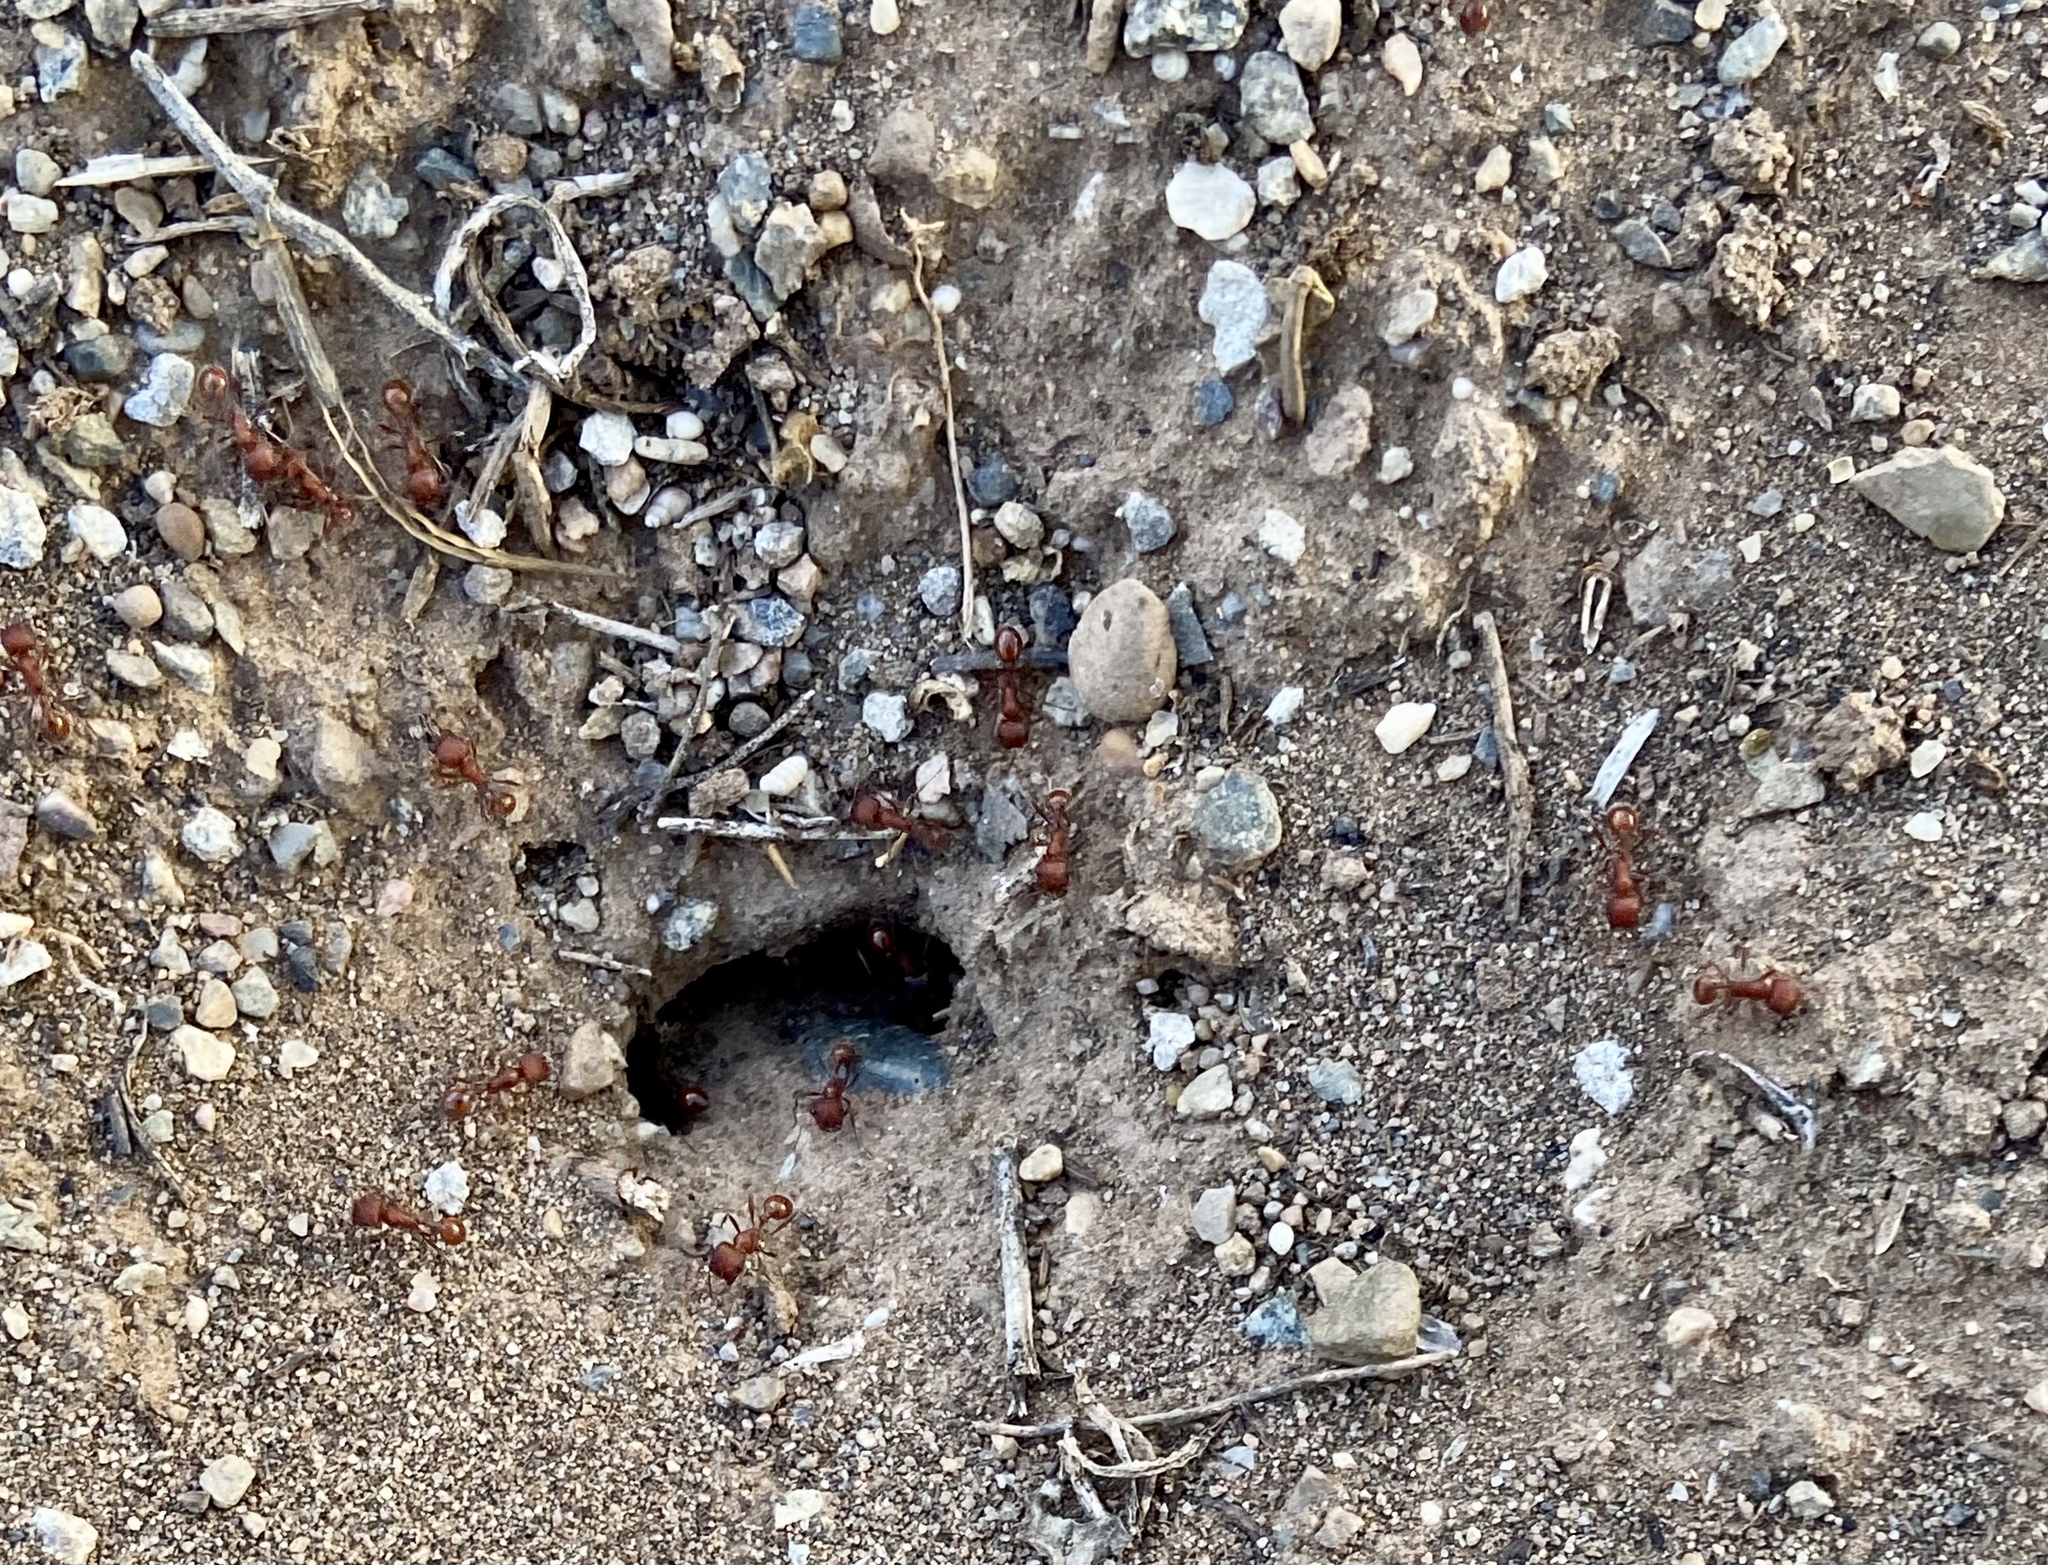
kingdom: Animalia
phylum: Arthropoda
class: Insecta
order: Hymenoptera
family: Formicidae
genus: Pogonomyrmex
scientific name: Pogonomyrmex
